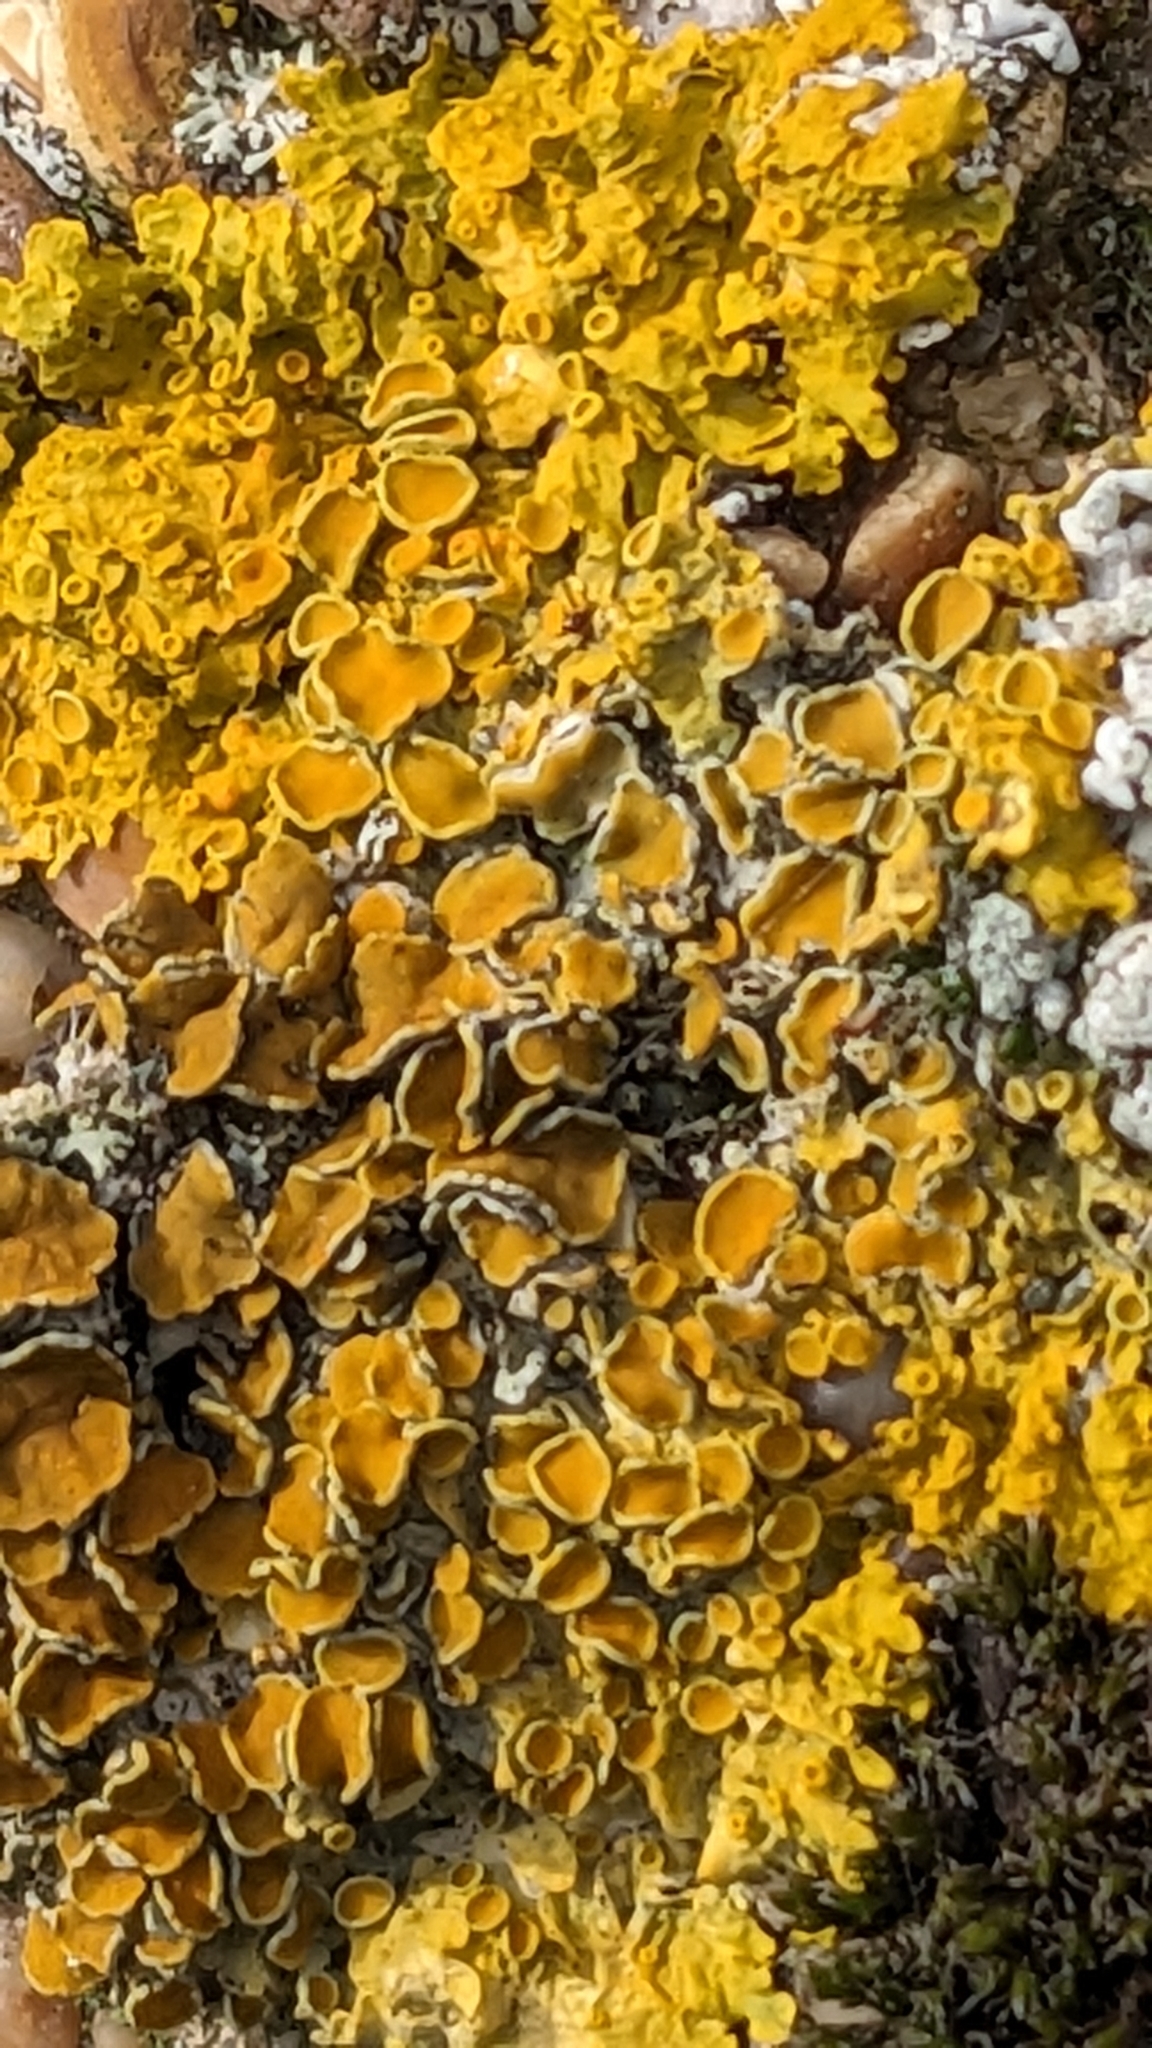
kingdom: Fungi
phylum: Ascomycota
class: Lecanoromycetes
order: Teloschistales
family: Teloschistaceae
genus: Xanthoria
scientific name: Xanthoria parietina
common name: Common orange lichen
